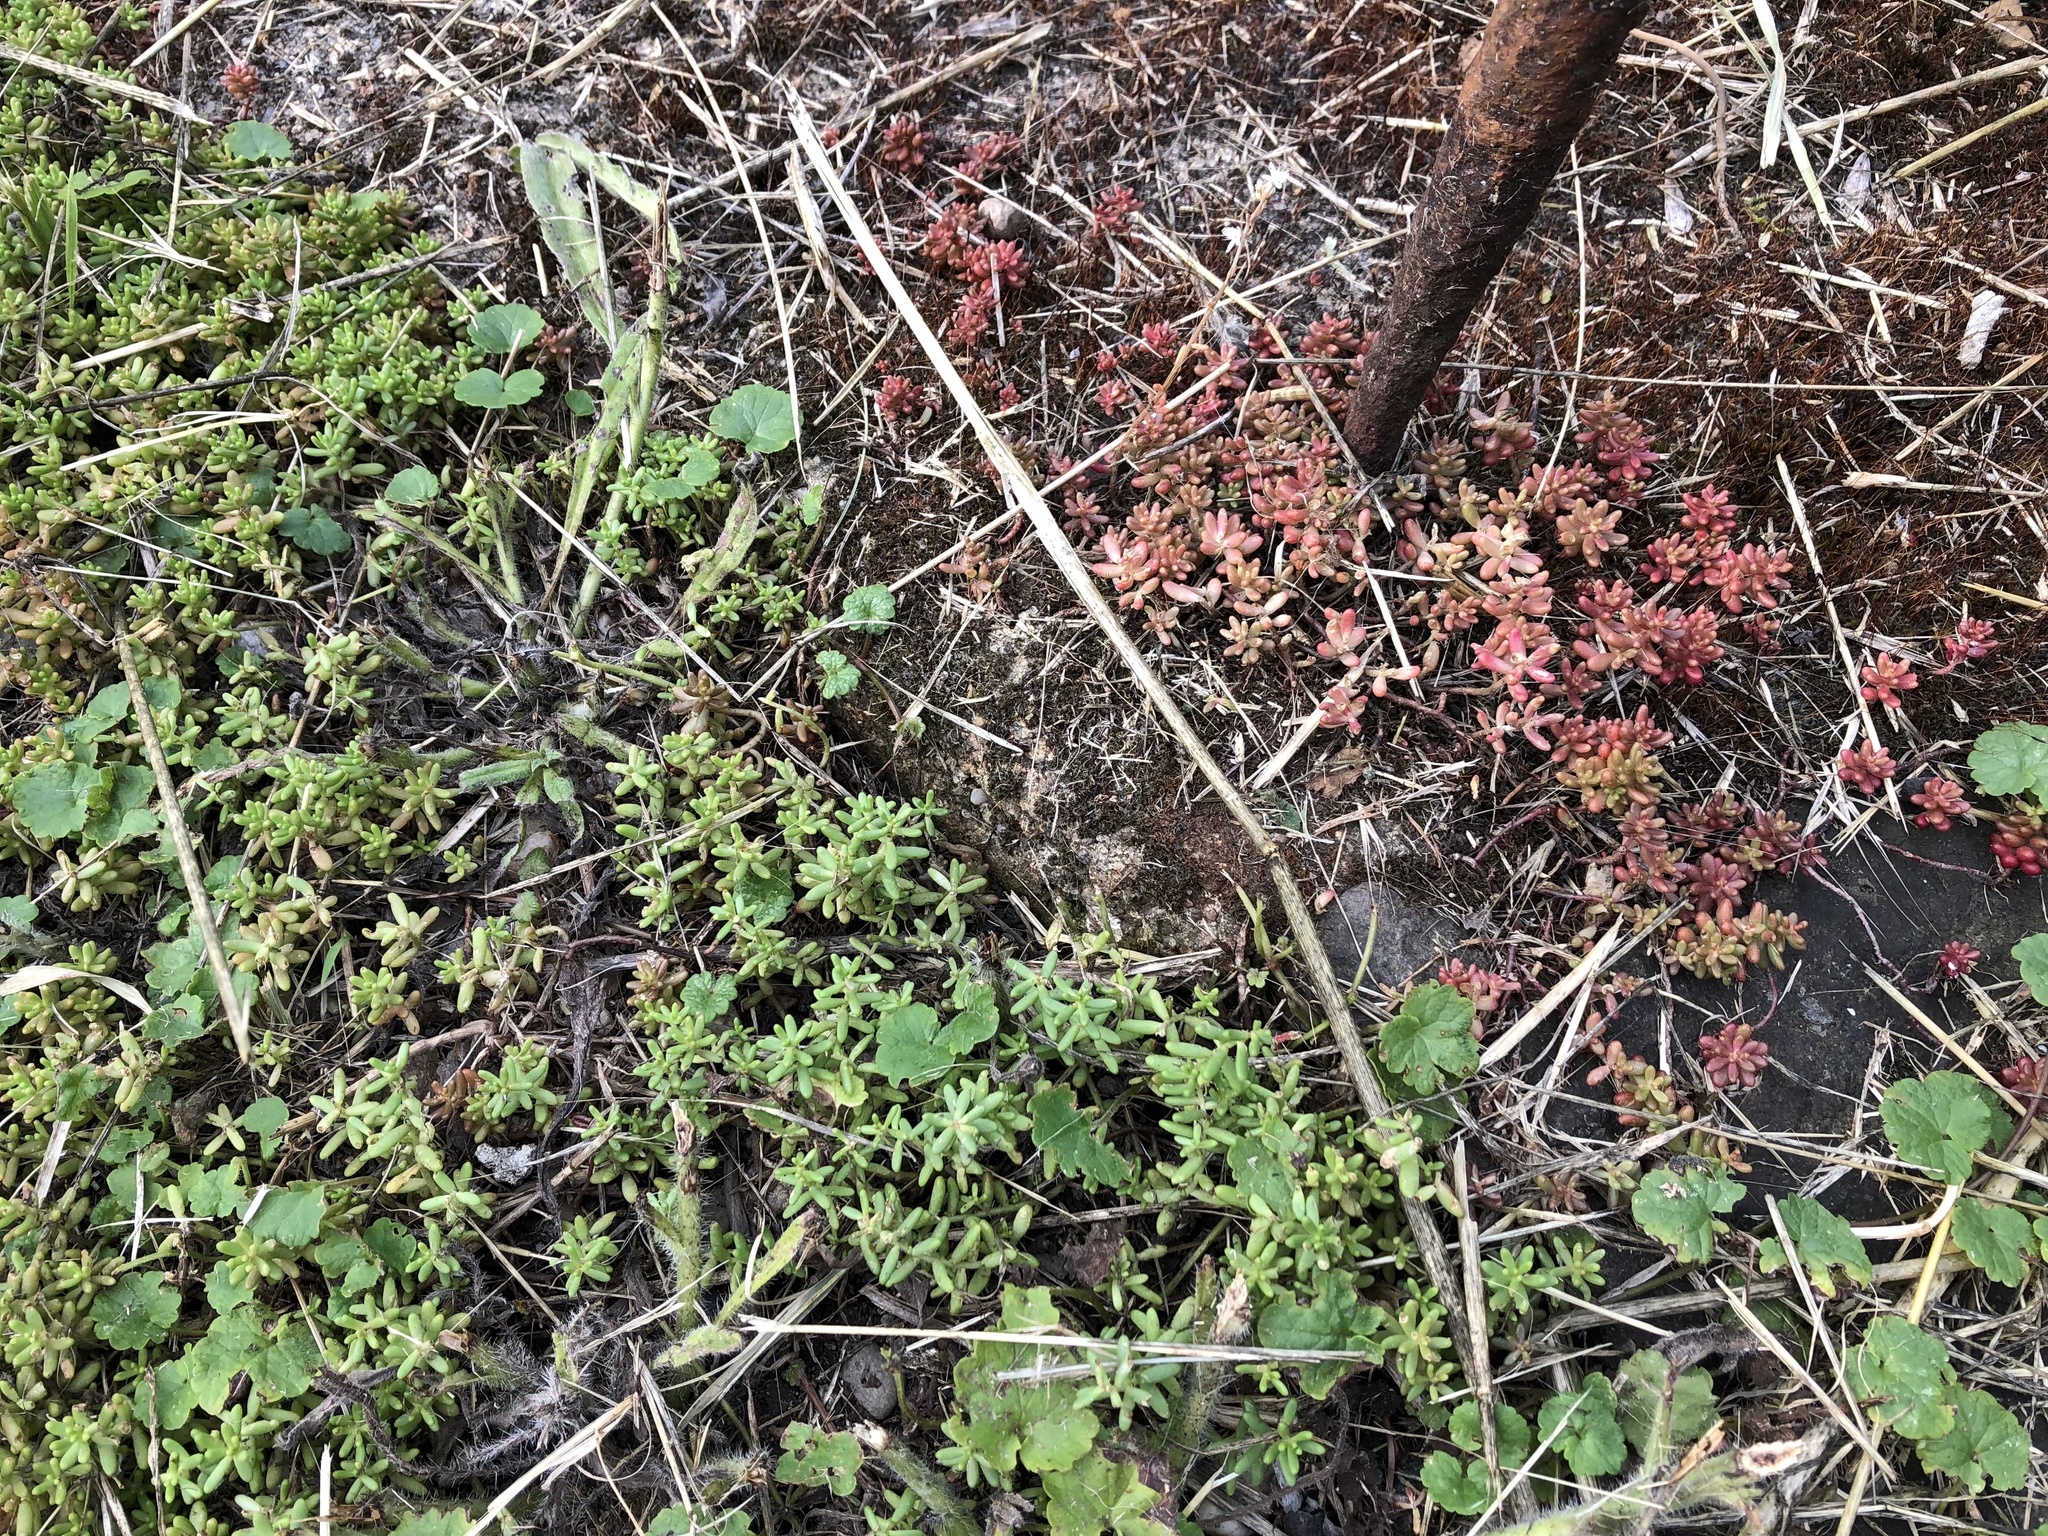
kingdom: Plantae
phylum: Tracheophyta
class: Magnoliopsida
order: Saxifragales
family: Crassulaceae
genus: Sedum
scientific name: Sedum album
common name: White stonecrop
